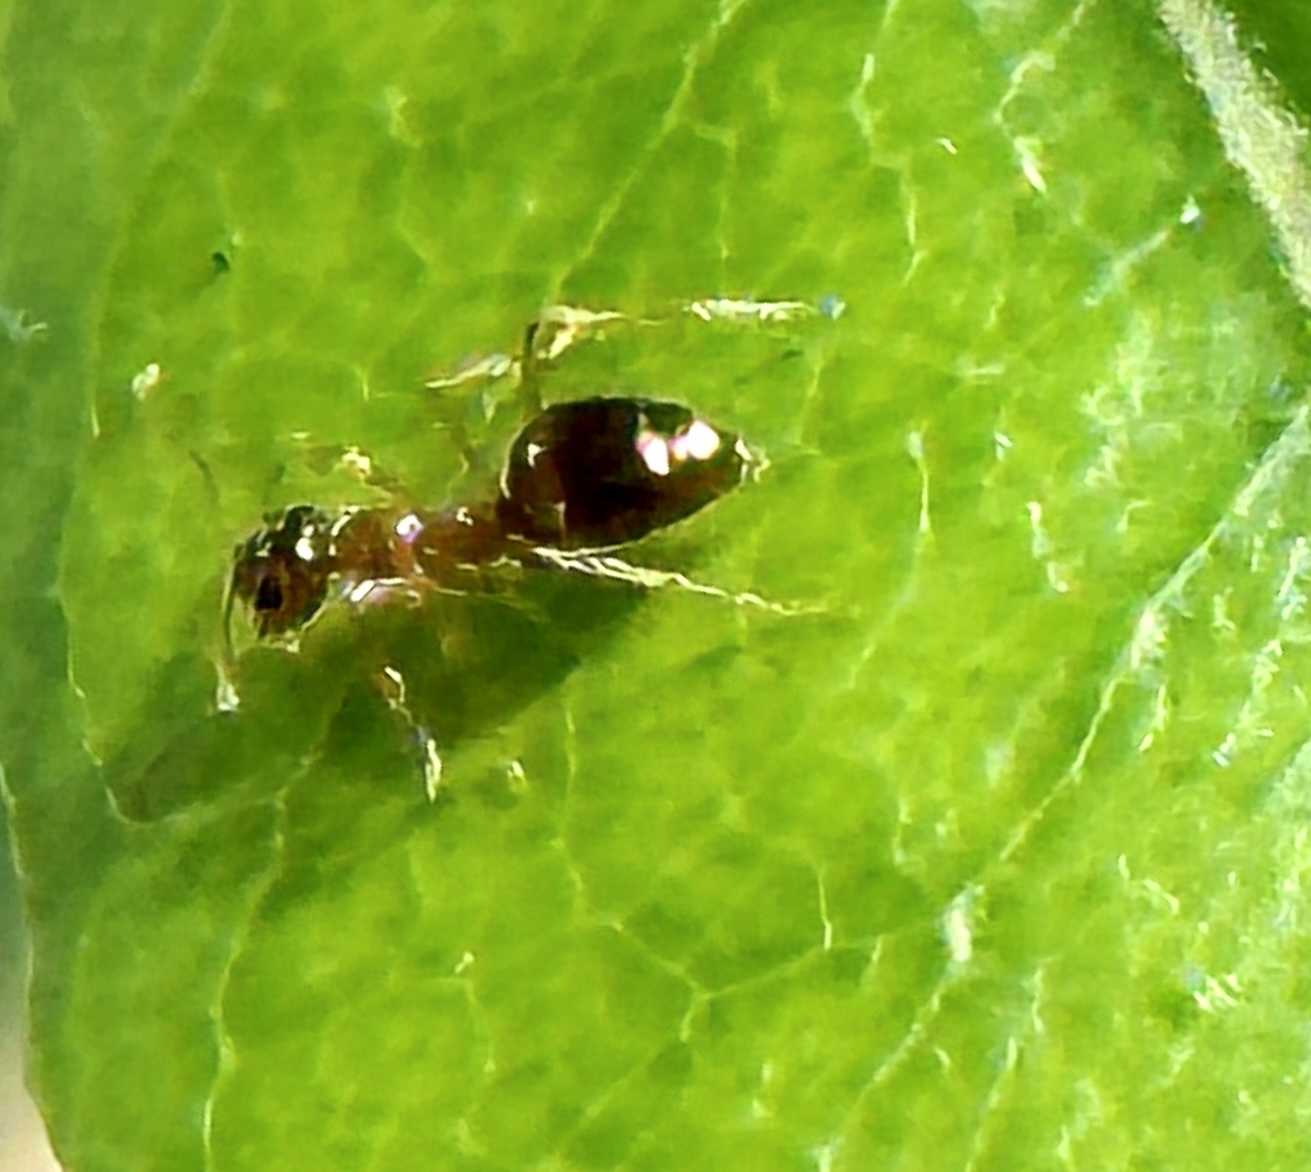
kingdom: Animalia
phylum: Arthropoda
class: Insecta
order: Hymenoptera
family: Formicidae
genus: Prenolepis
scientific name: Prenolepis imparis
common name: Small honey ant
